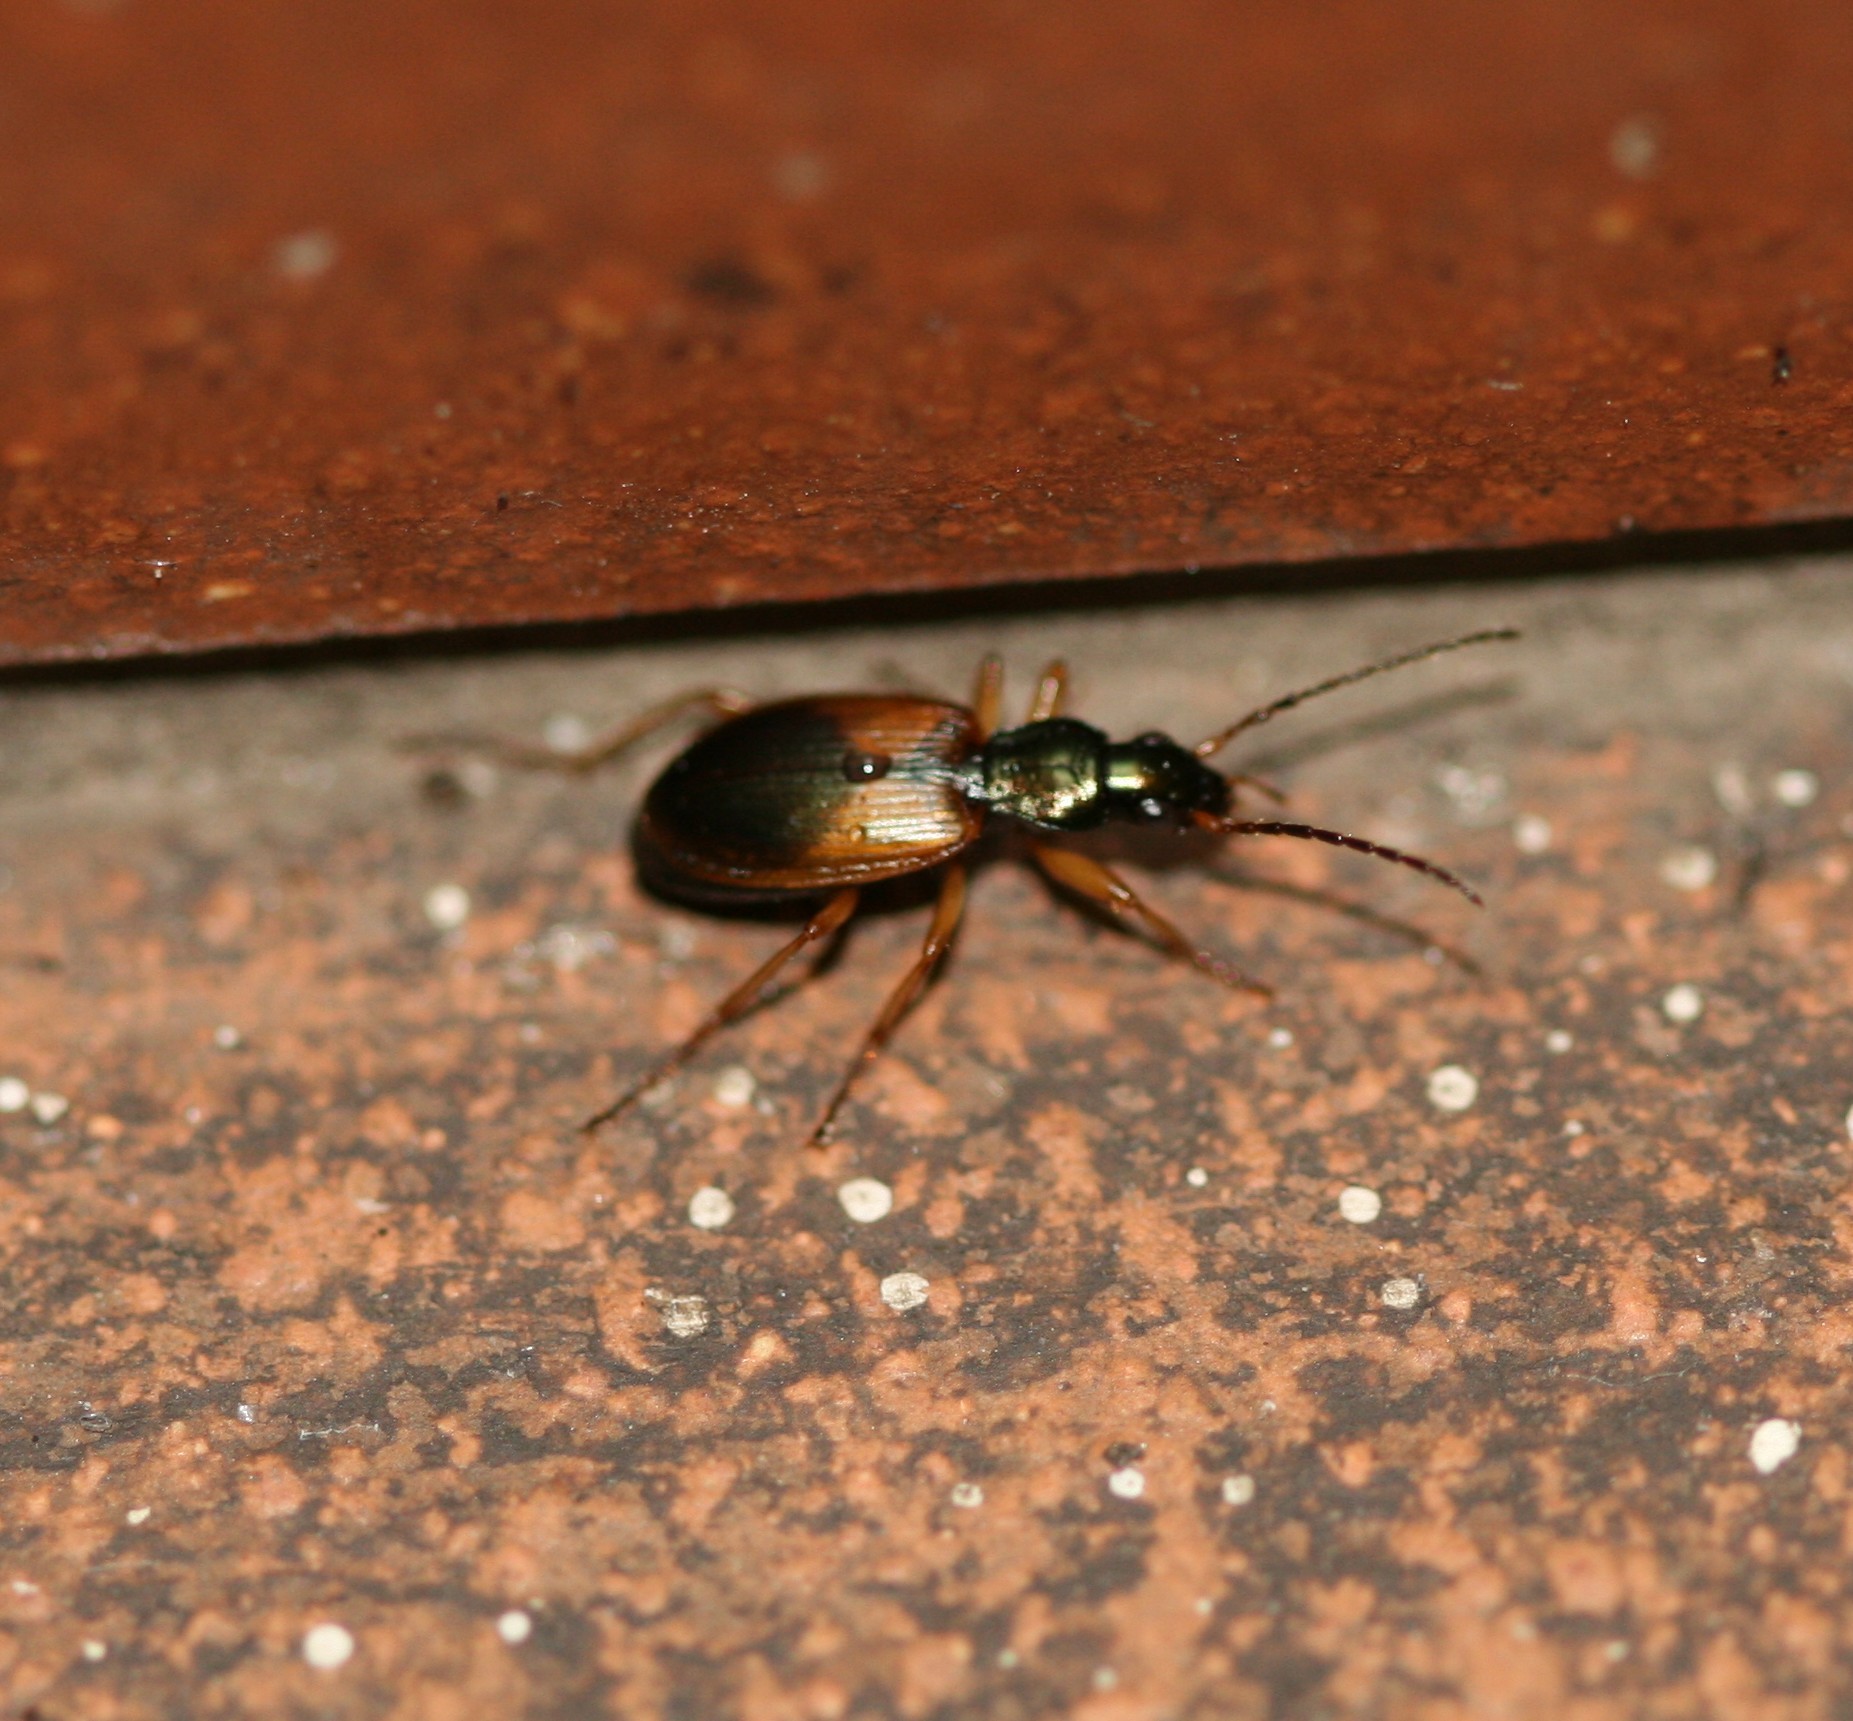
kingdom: Animalia
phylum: Arthropoda
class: Insecta
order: Coleoptera
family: Carabidae
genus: Anchomenus
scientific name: Anchomenus dorsalis
